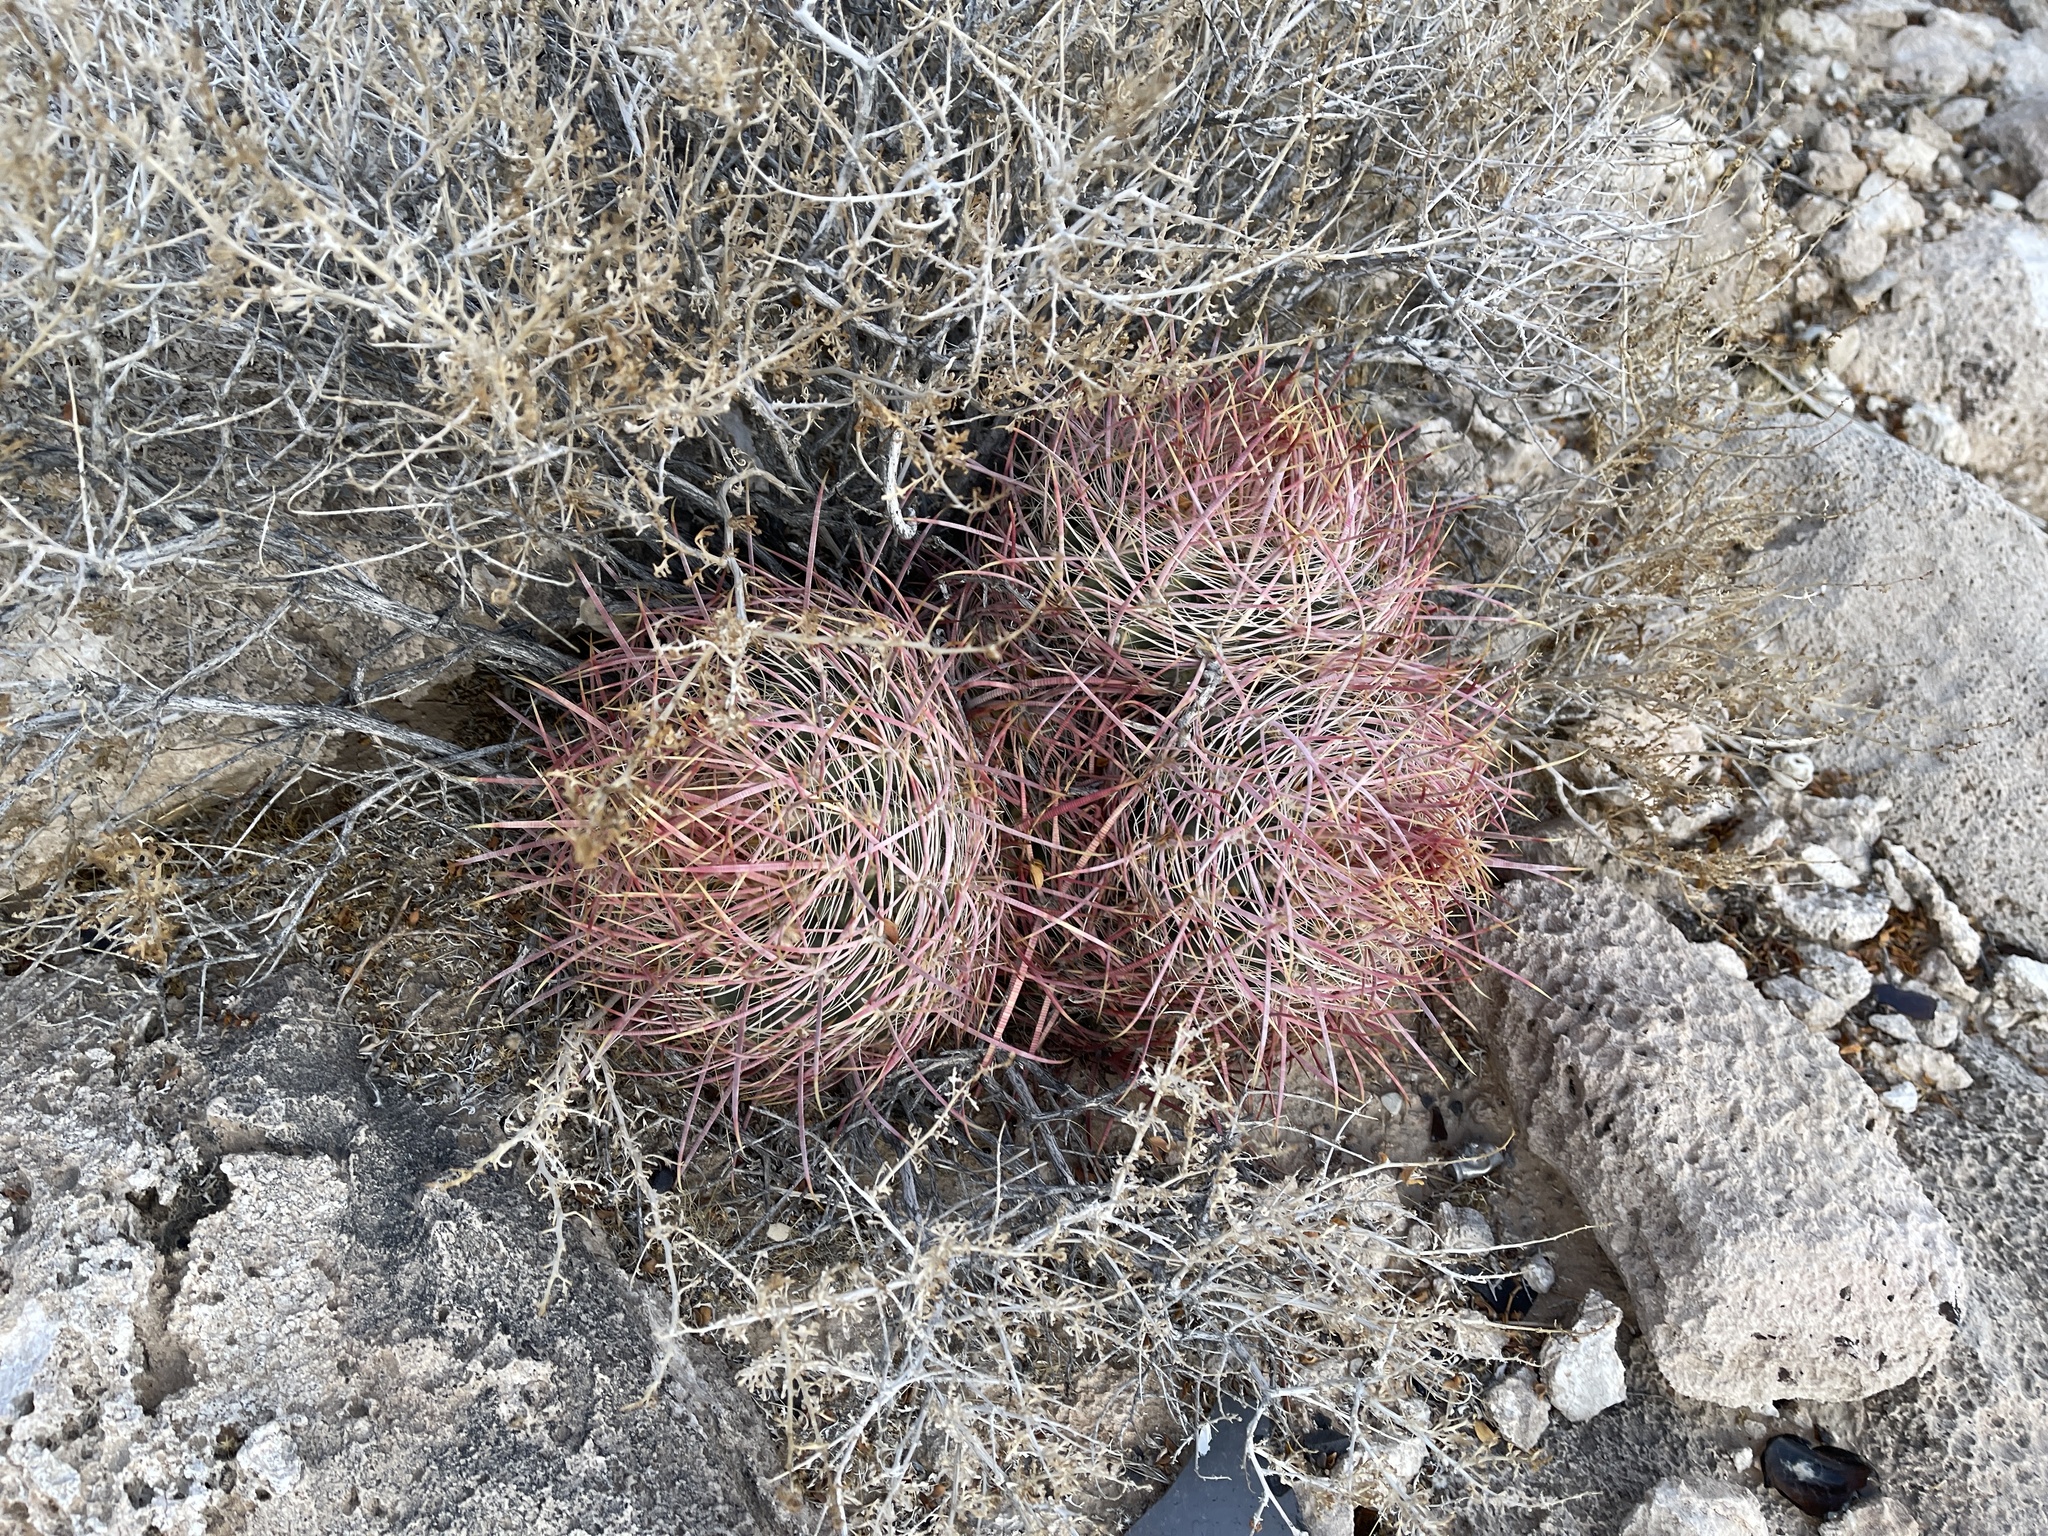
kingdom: Plantae
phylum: Tracheophyta
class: Magnoliopsida
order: Caryophyllales
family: Cactaceae
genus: Ferocactus
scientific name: Ferocactus cylindraceus
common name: California barrel cactus
